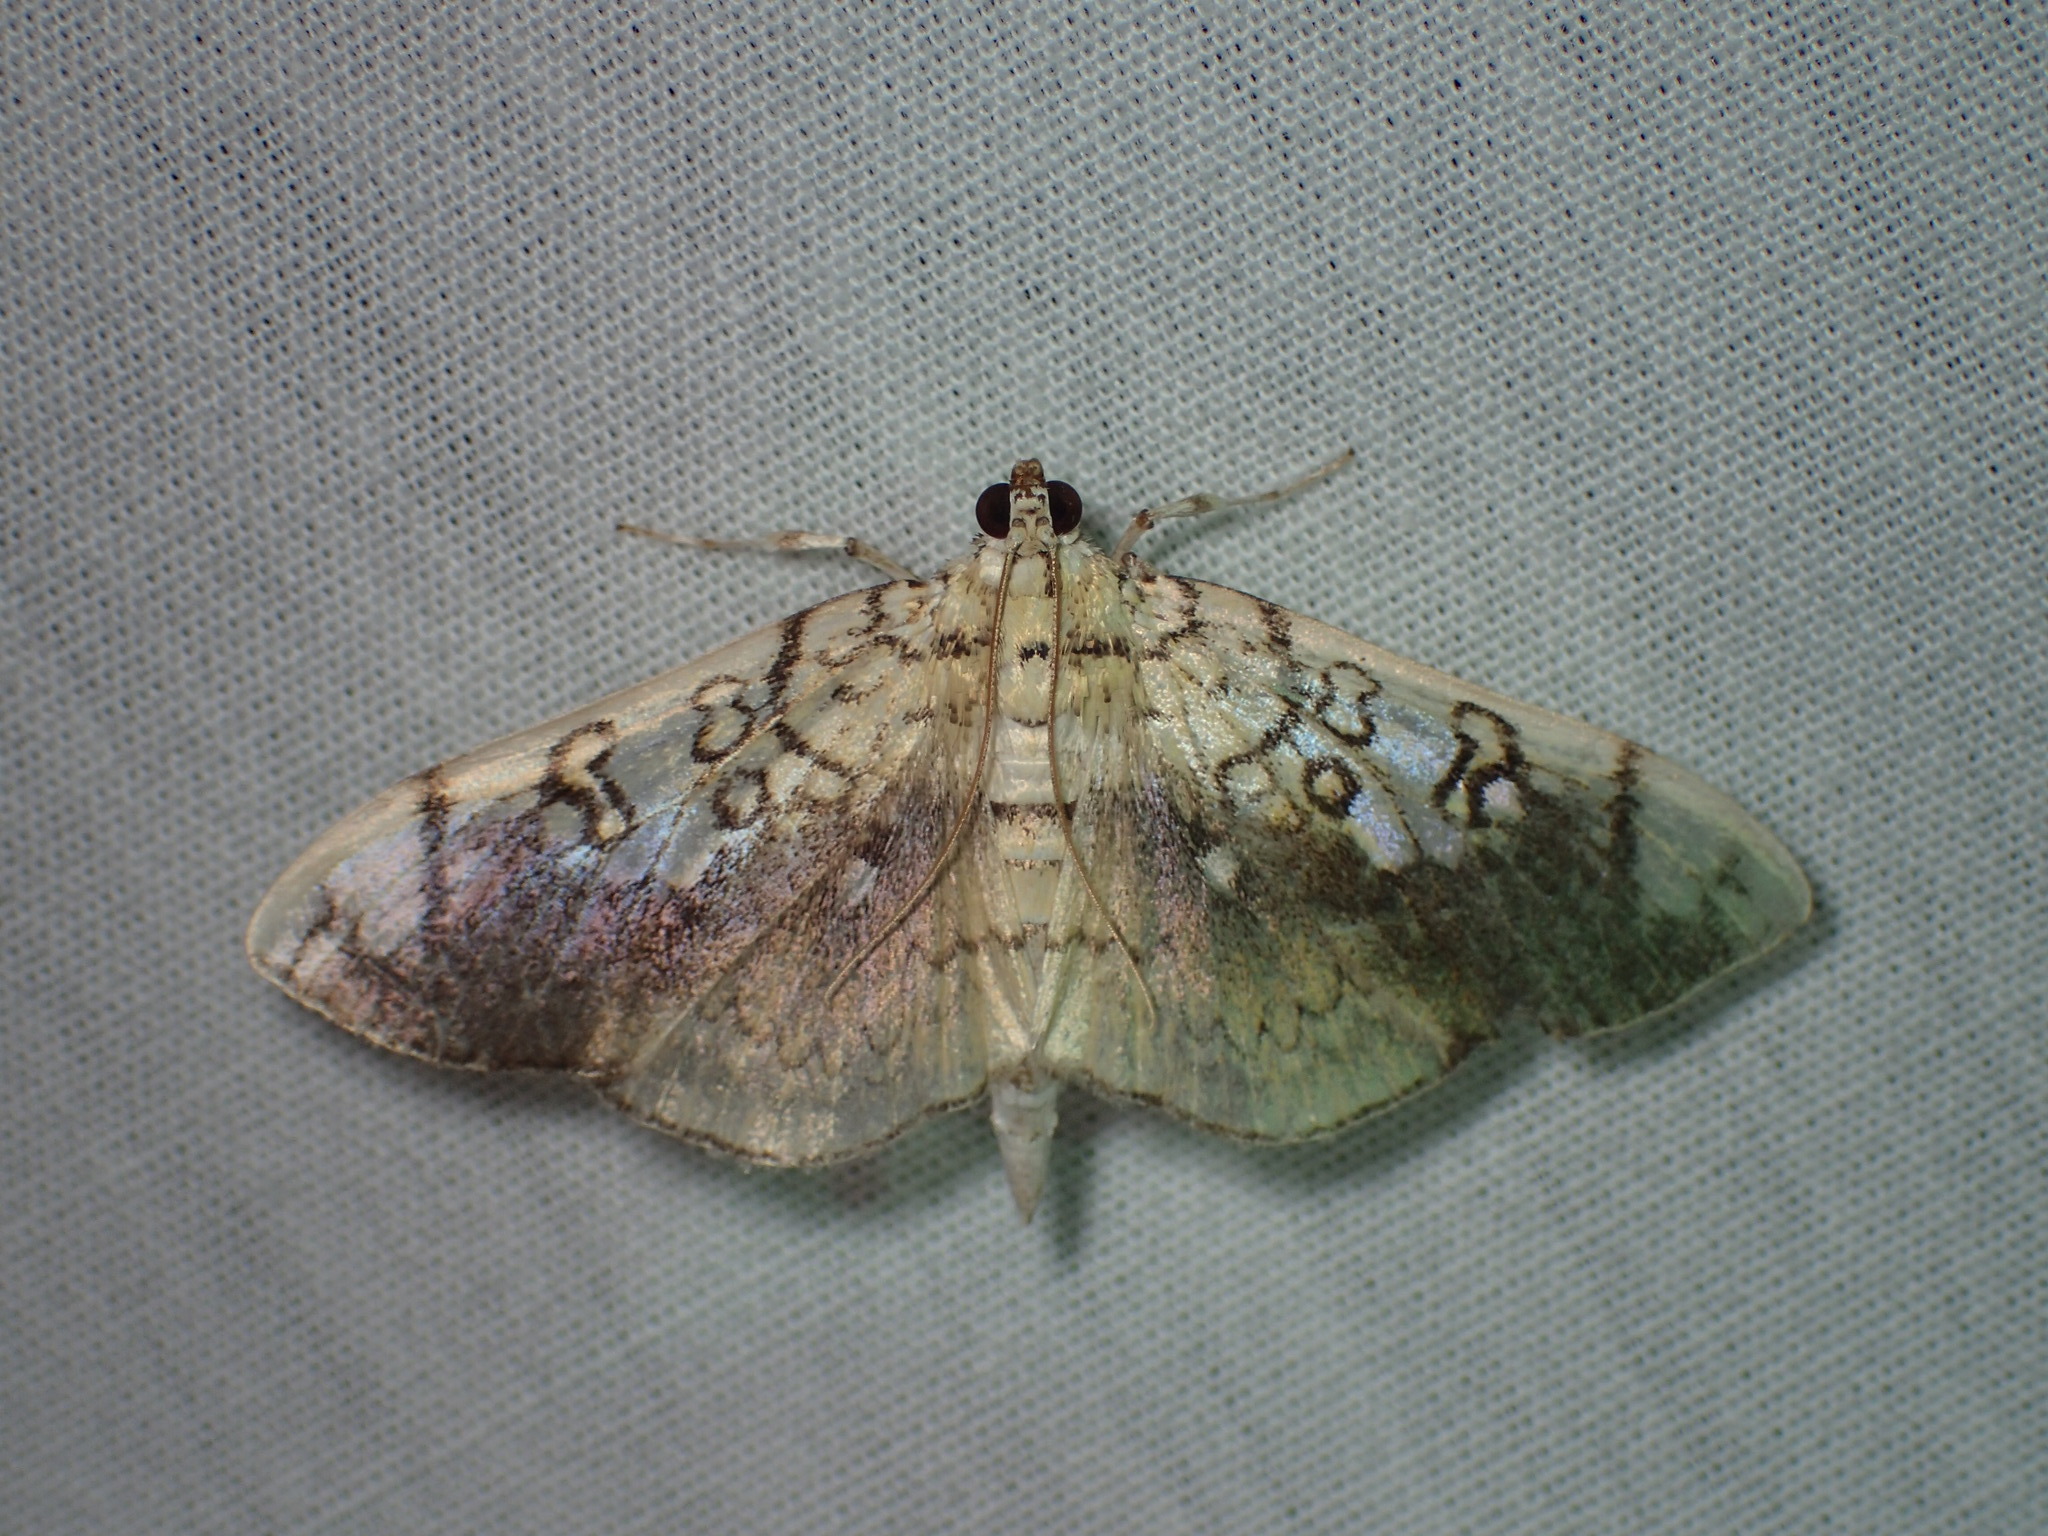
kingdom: Animalia
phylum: Arthropoda
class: Insecta
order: Lepidoptera
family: Crambidae
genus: Pantographa
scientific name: Pantographa limata
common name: Basswood leafroller moth
